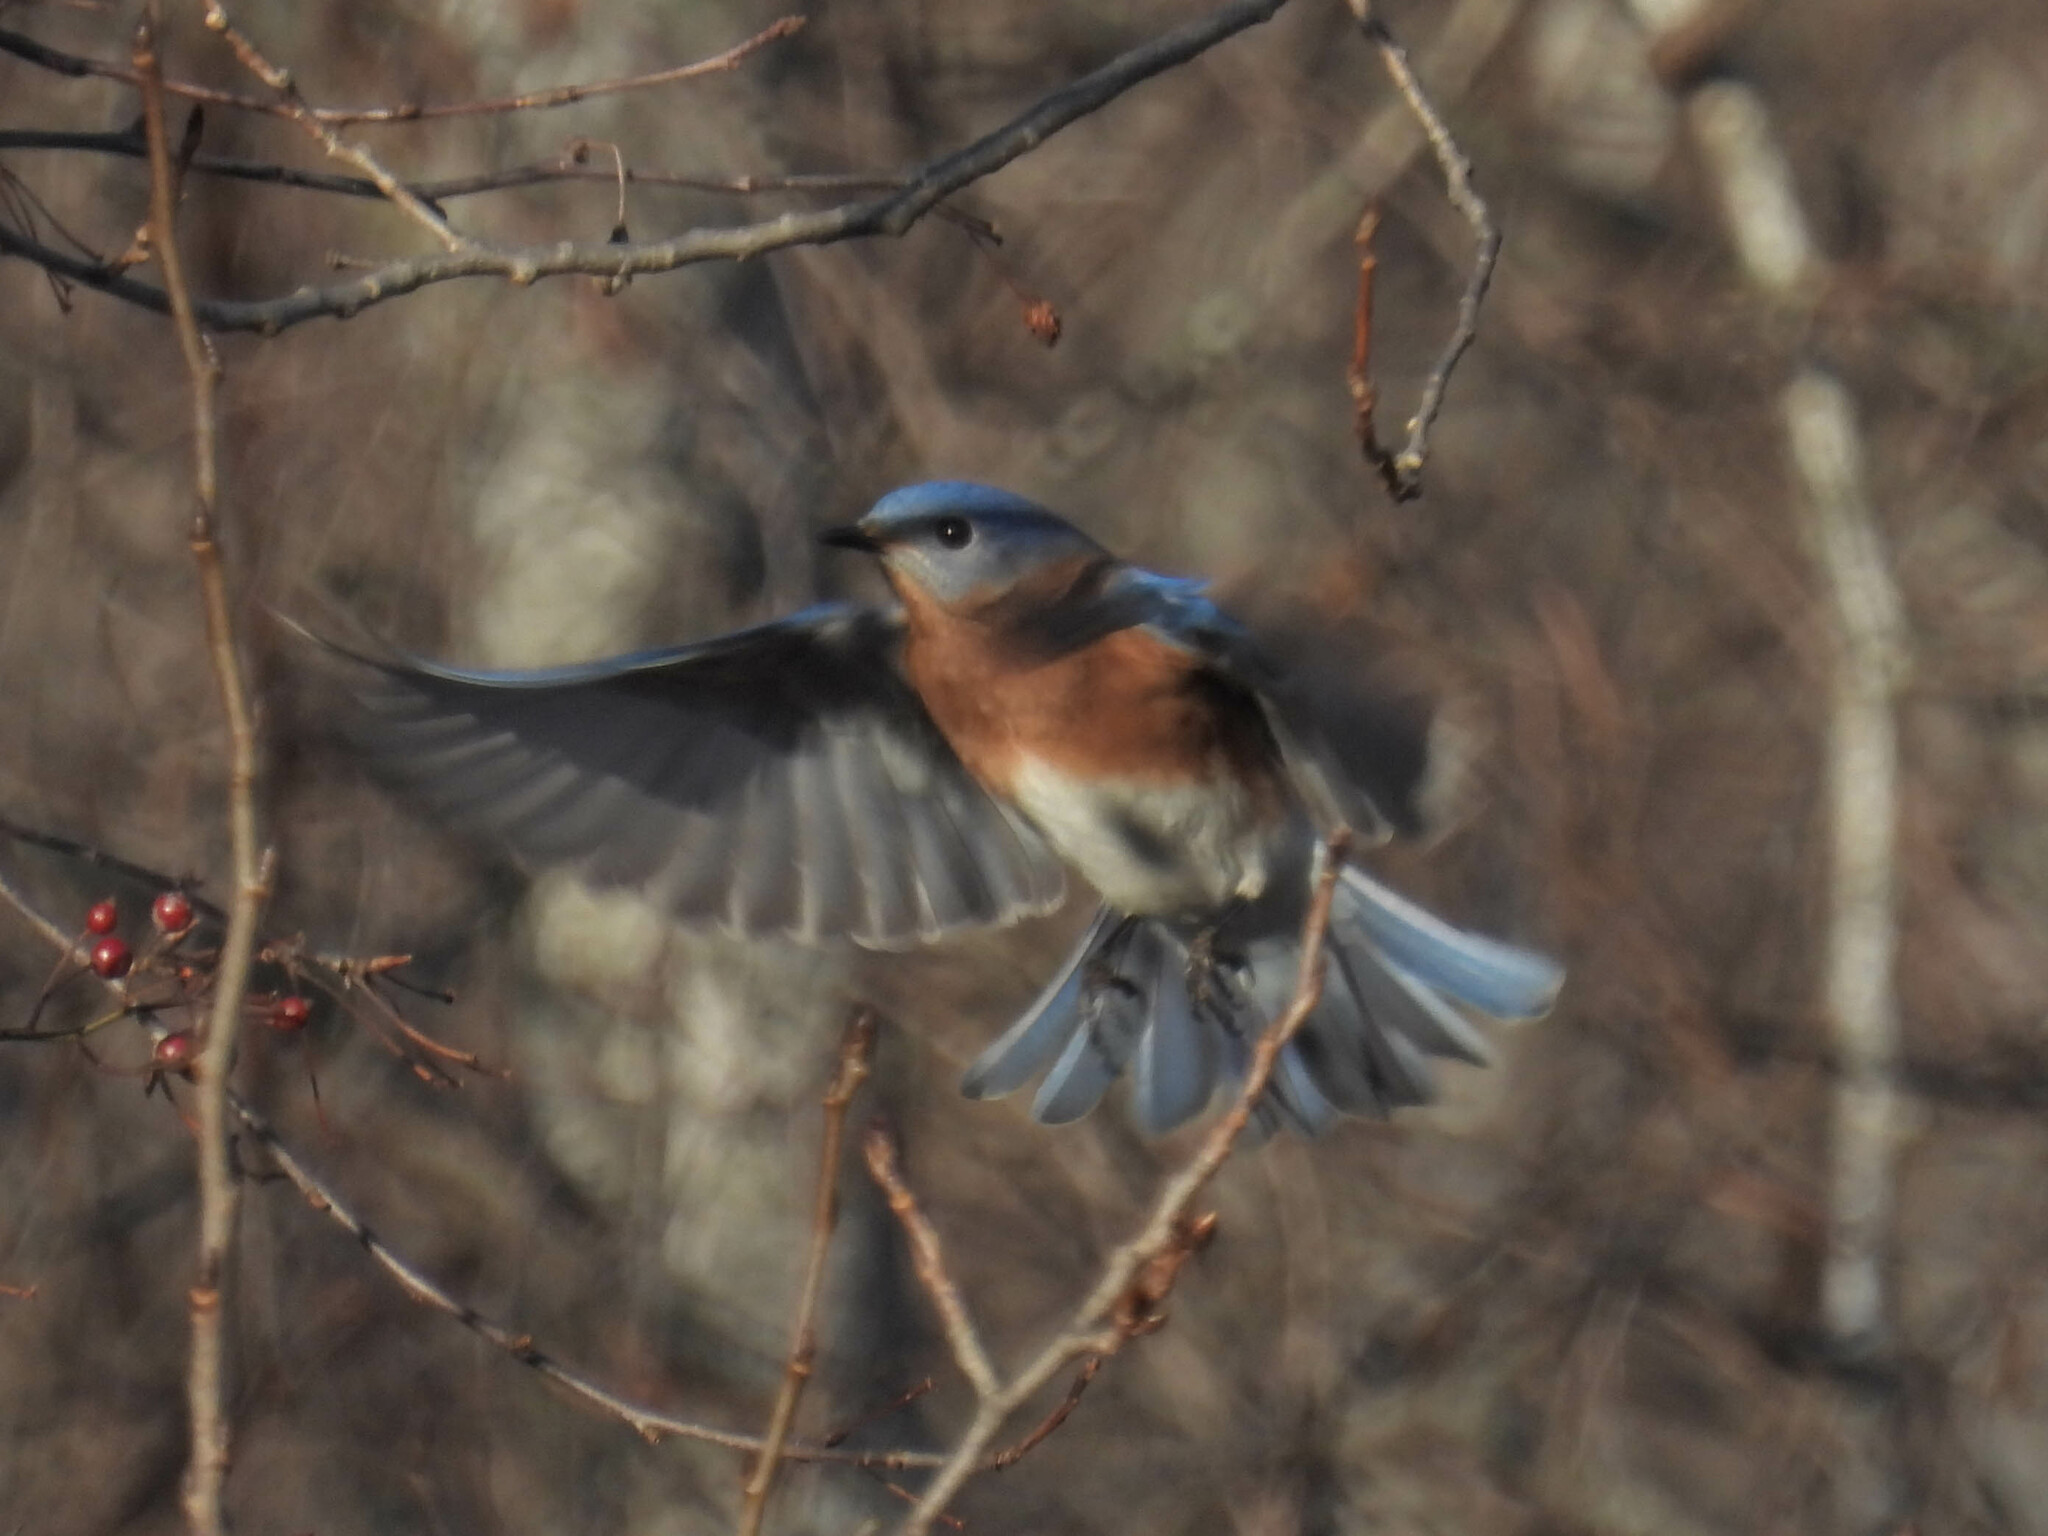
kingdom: Animalia
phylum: Chordata
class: Aves
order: Passeriformes
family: Turdidae
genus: Sialia
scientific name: Sialia sialis
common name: Eastern bluebird
